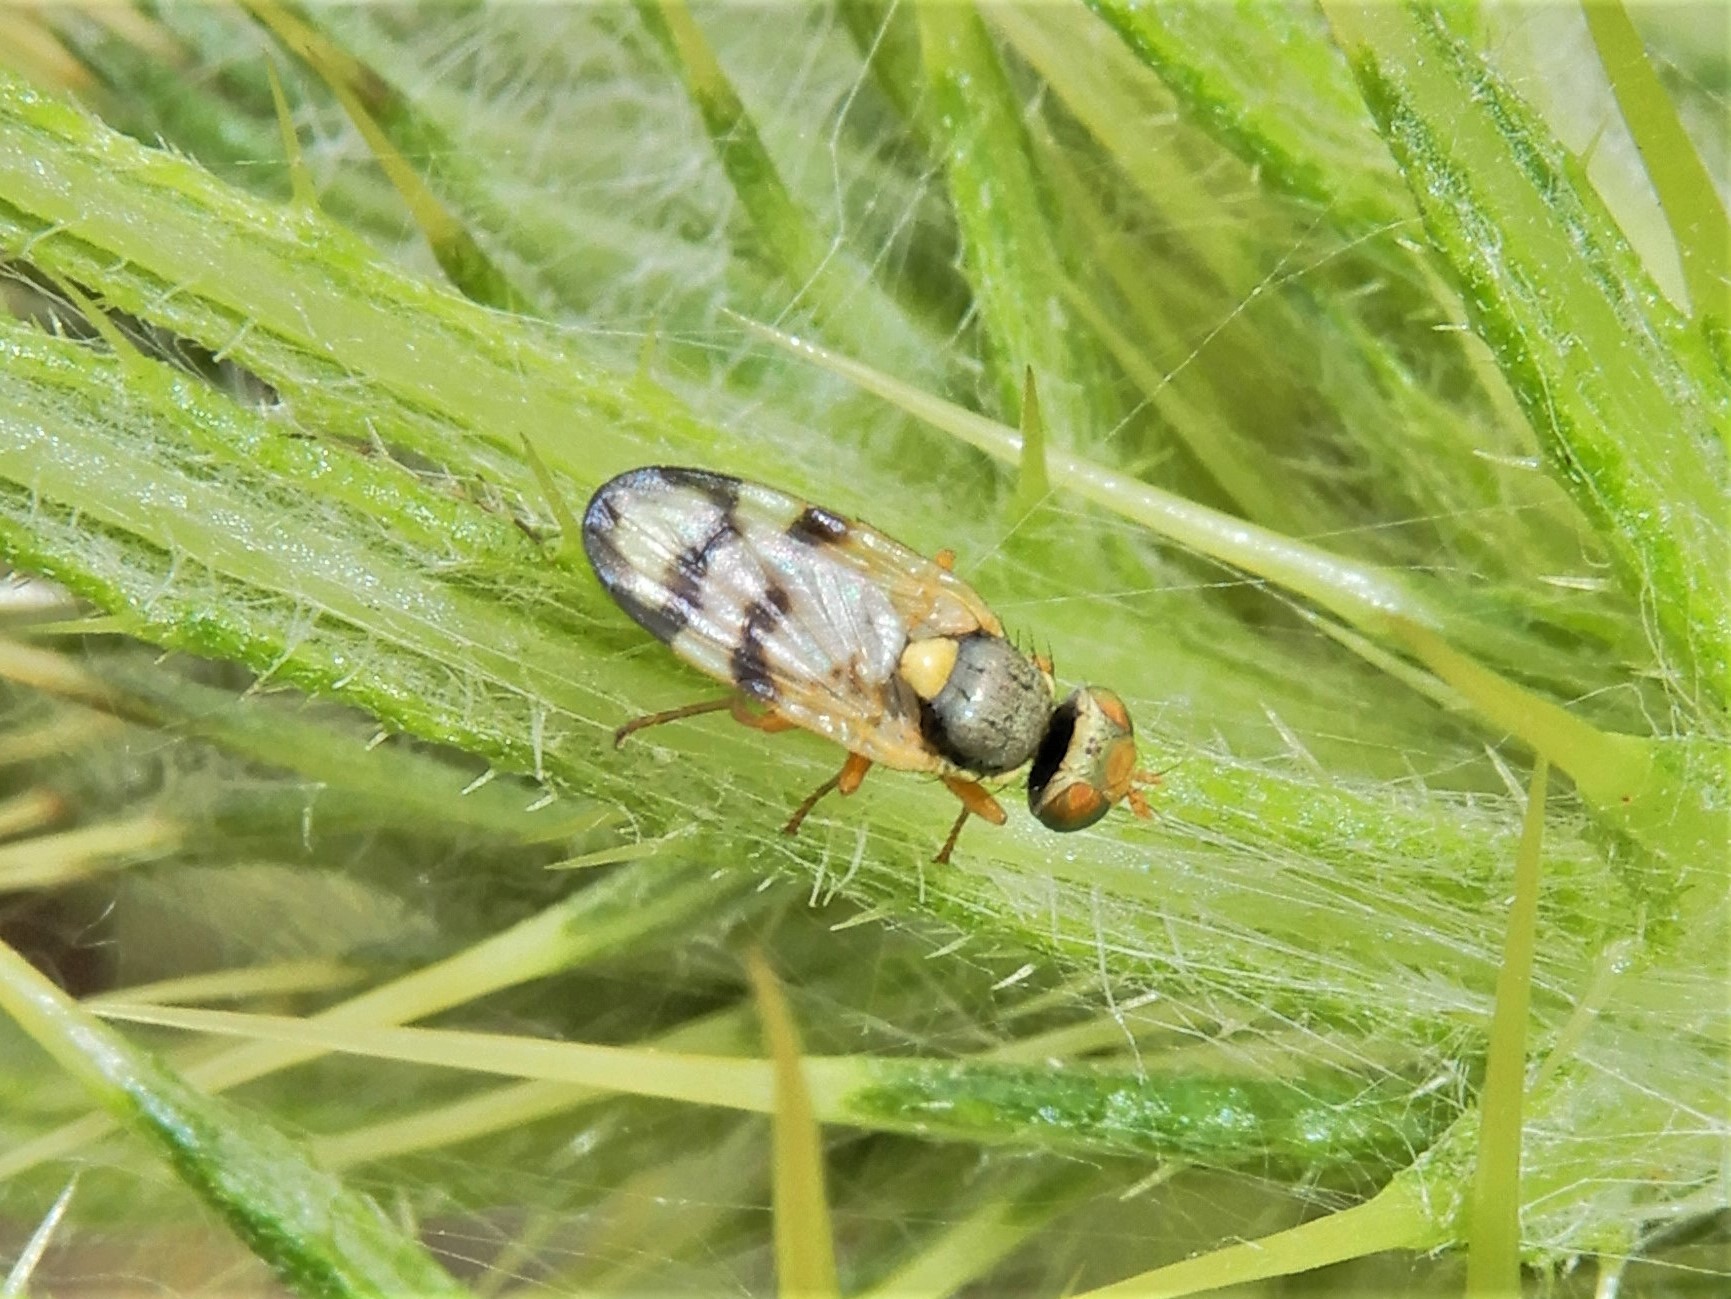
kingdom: Animalia
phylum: Arthropoda
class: Insecta
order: Diptera
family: Tephritidae
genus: Urophora
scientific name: Urophora stylata
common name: Fruit fly
